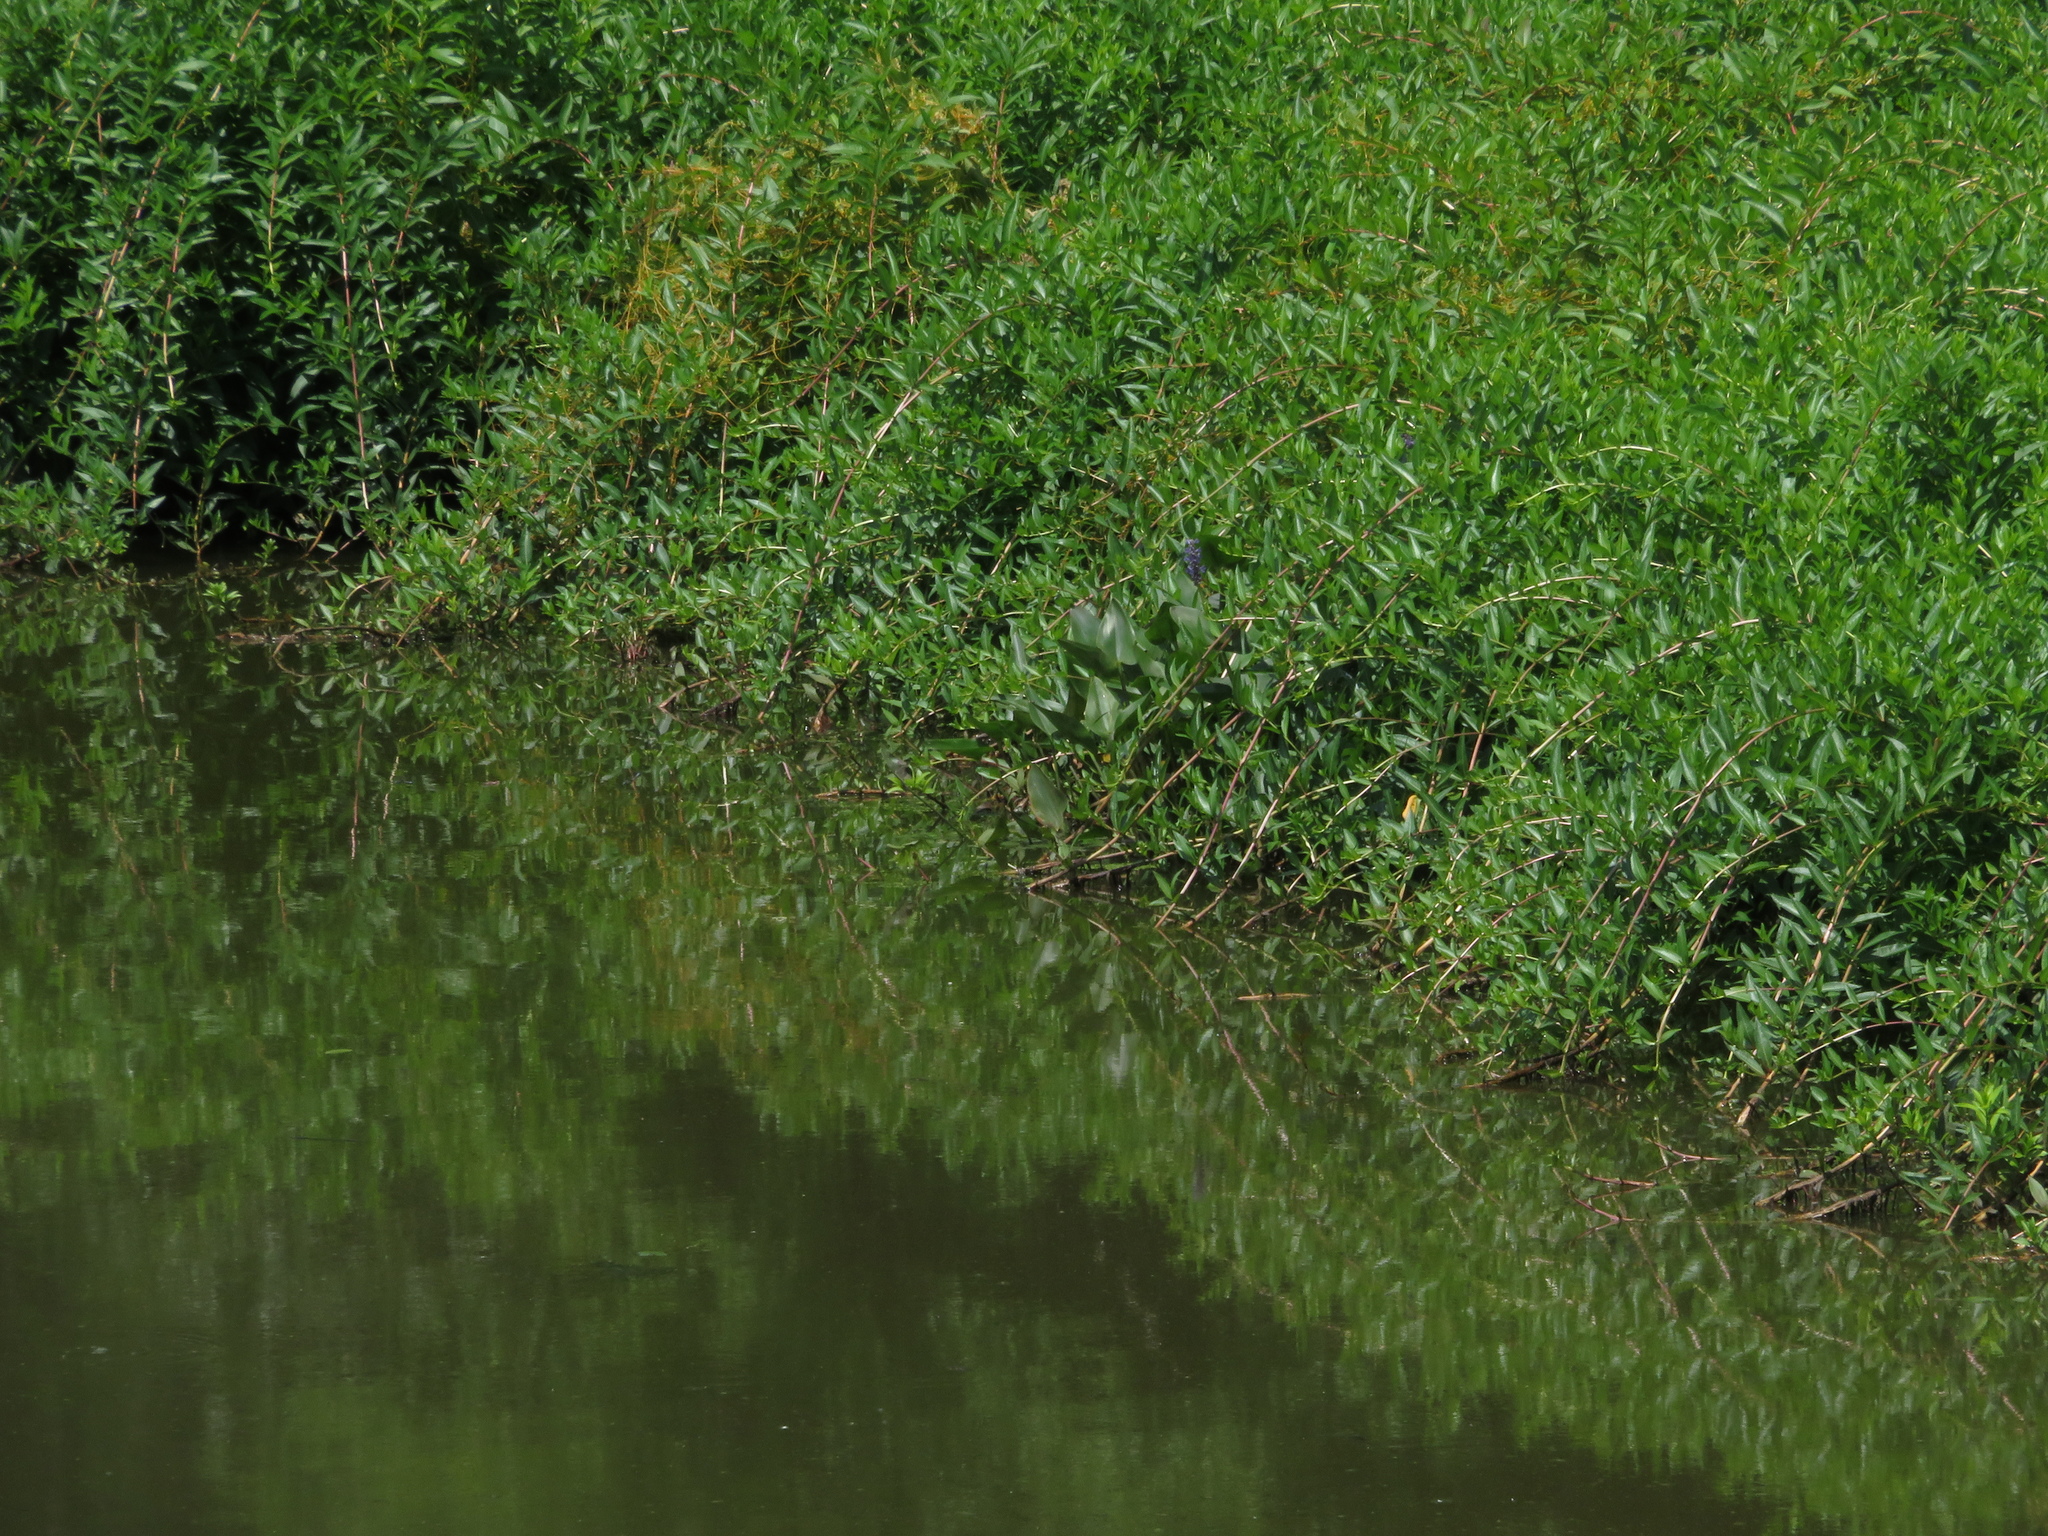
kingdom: Plantae
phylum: Tracheophyta
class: Magnoliopsida
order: Myrtales
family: Lythraceae
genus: Decodon
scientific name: Decodon verticillatus
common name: Hairy swamp loosestrife
